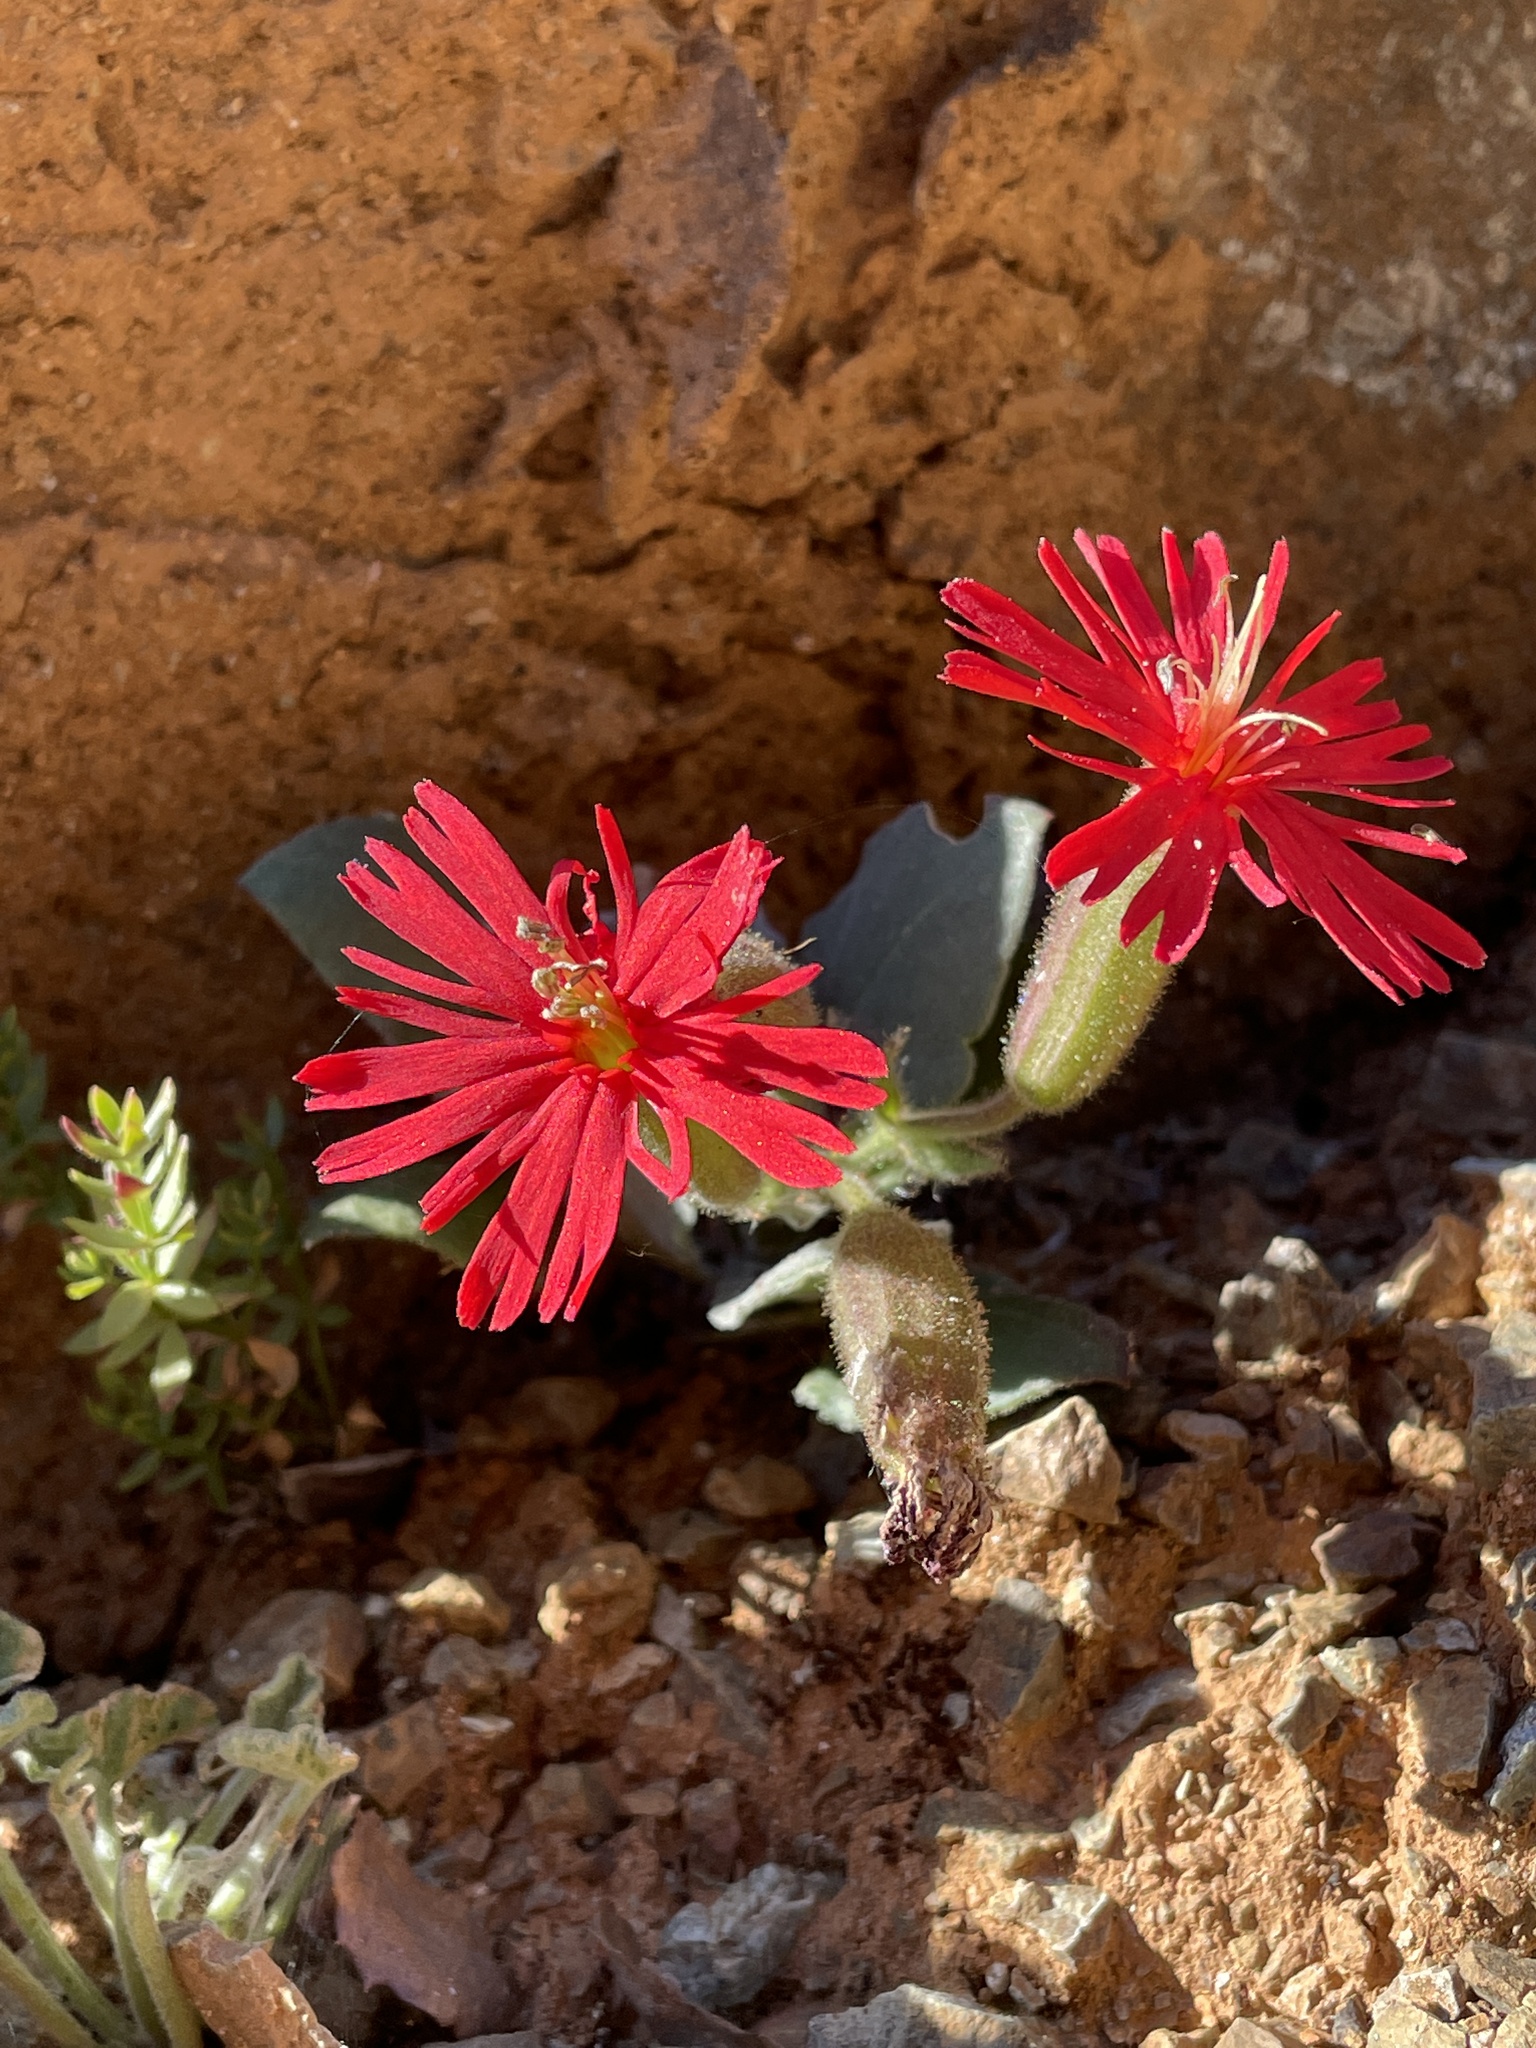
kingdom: Plantae
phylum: Tracheophyta
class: Magnoliopsida
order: Caryophyllales
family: Caryophyllaceae
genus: Silene
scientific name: Silene laciniata
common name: Indian-pink
